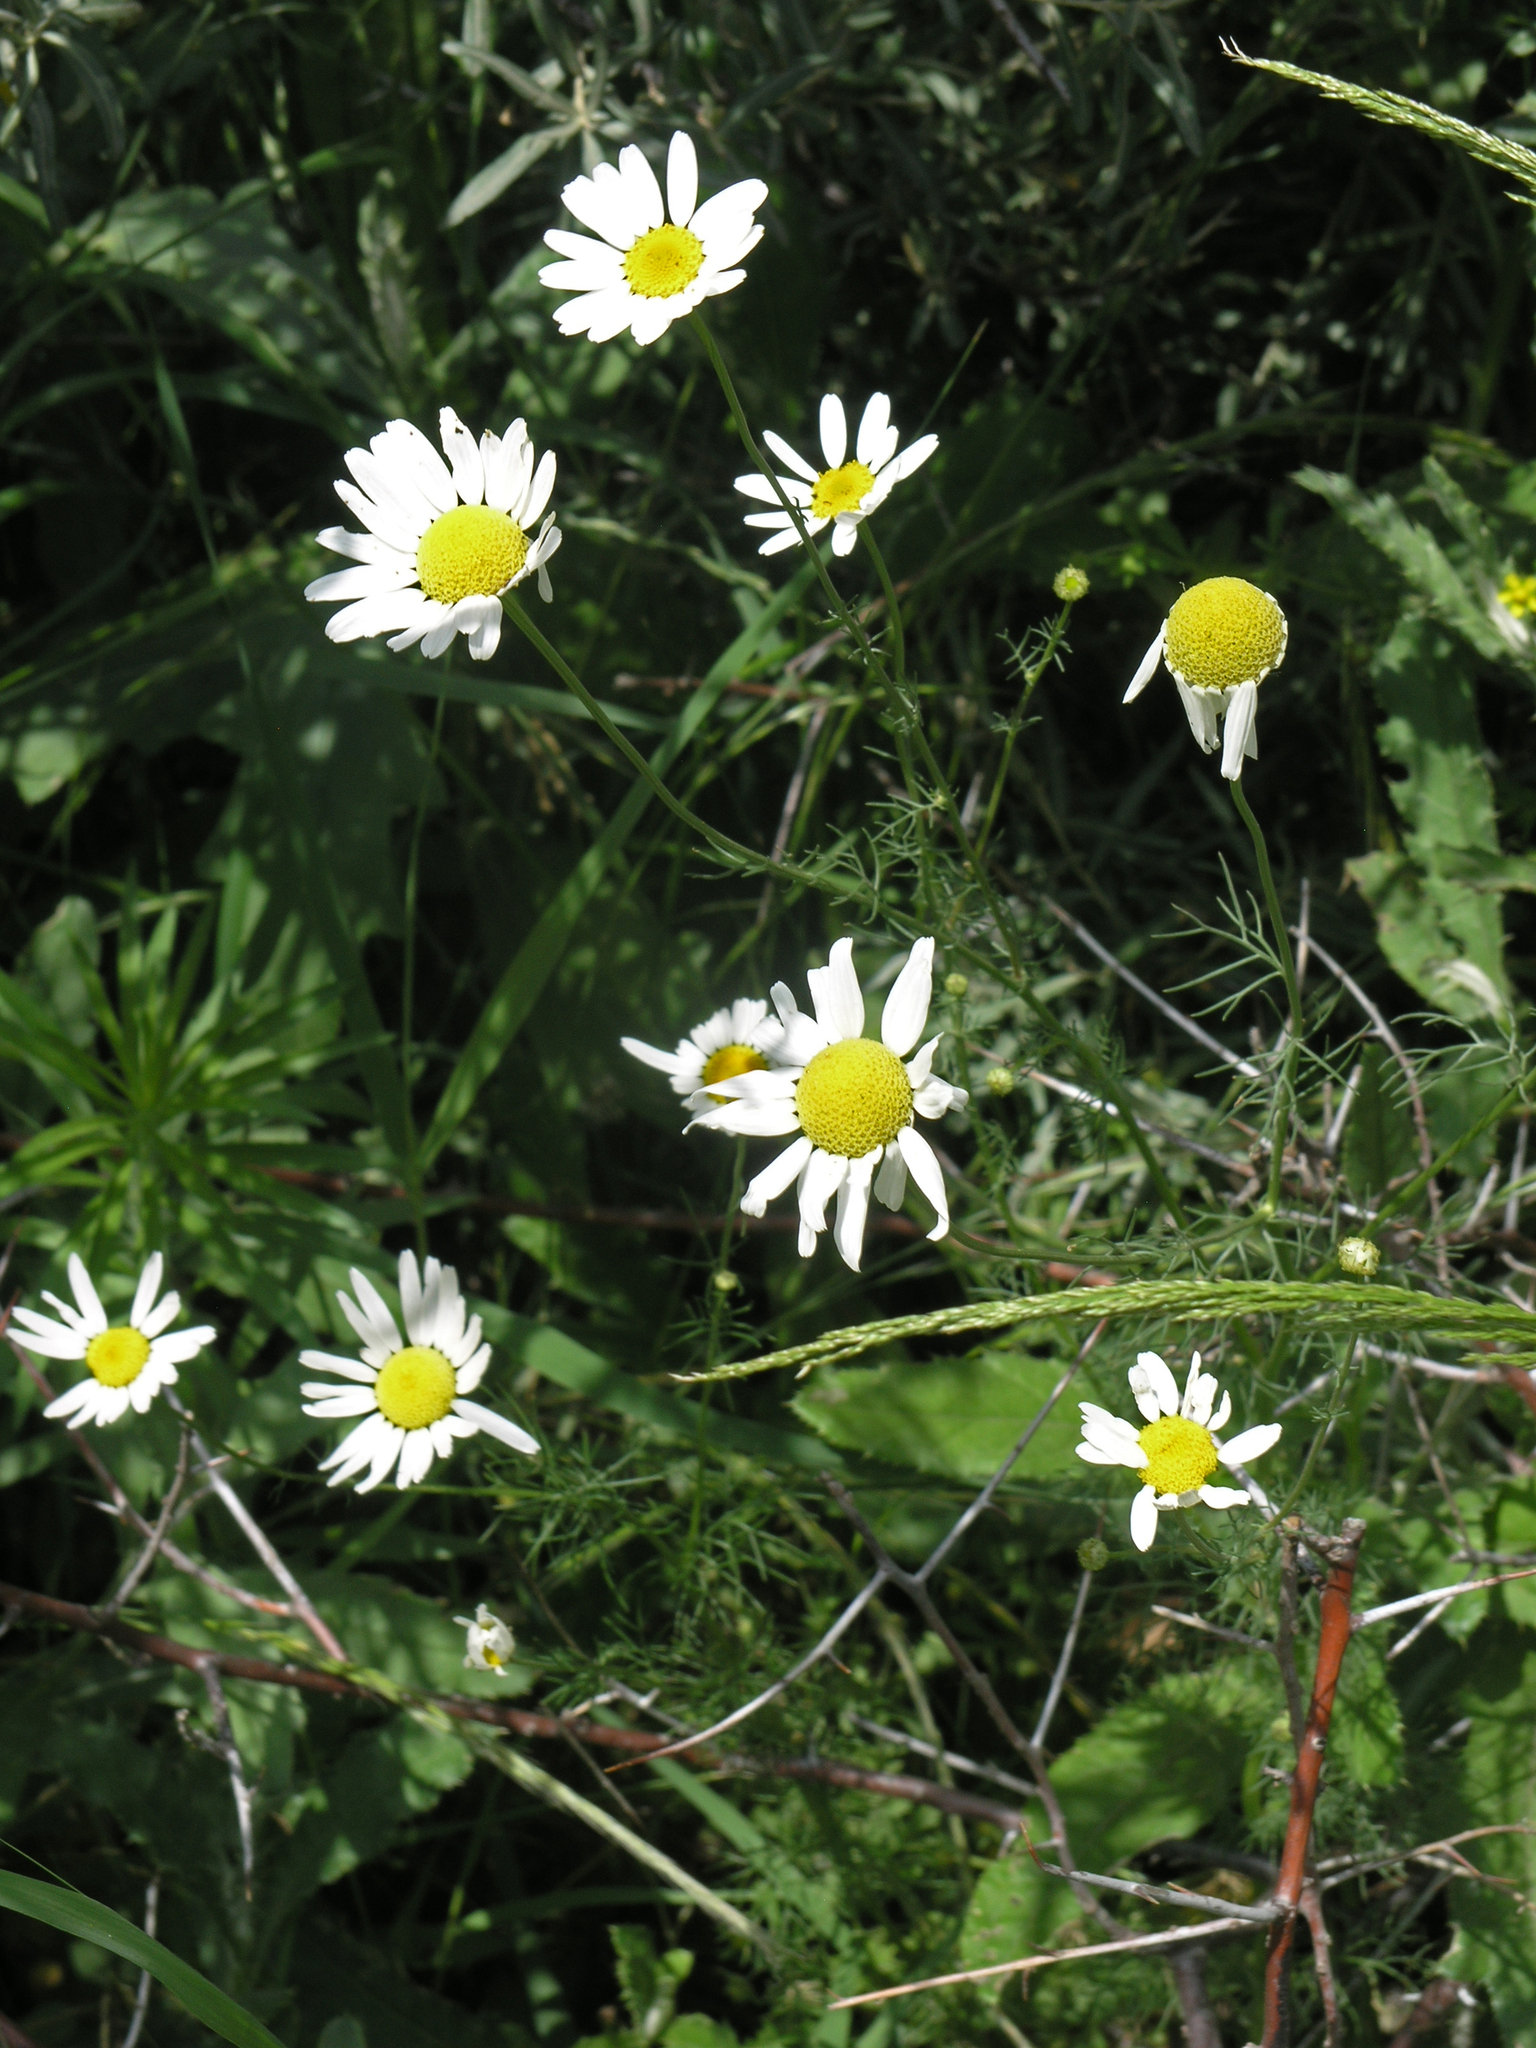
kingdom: Plantae
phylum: Tracheophyta
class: Magnoliopsida
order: Asterales
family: Asteraceae
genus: Tripleurospermum
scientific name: Tripleurospermum inodorum
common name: Scentless mayweed
